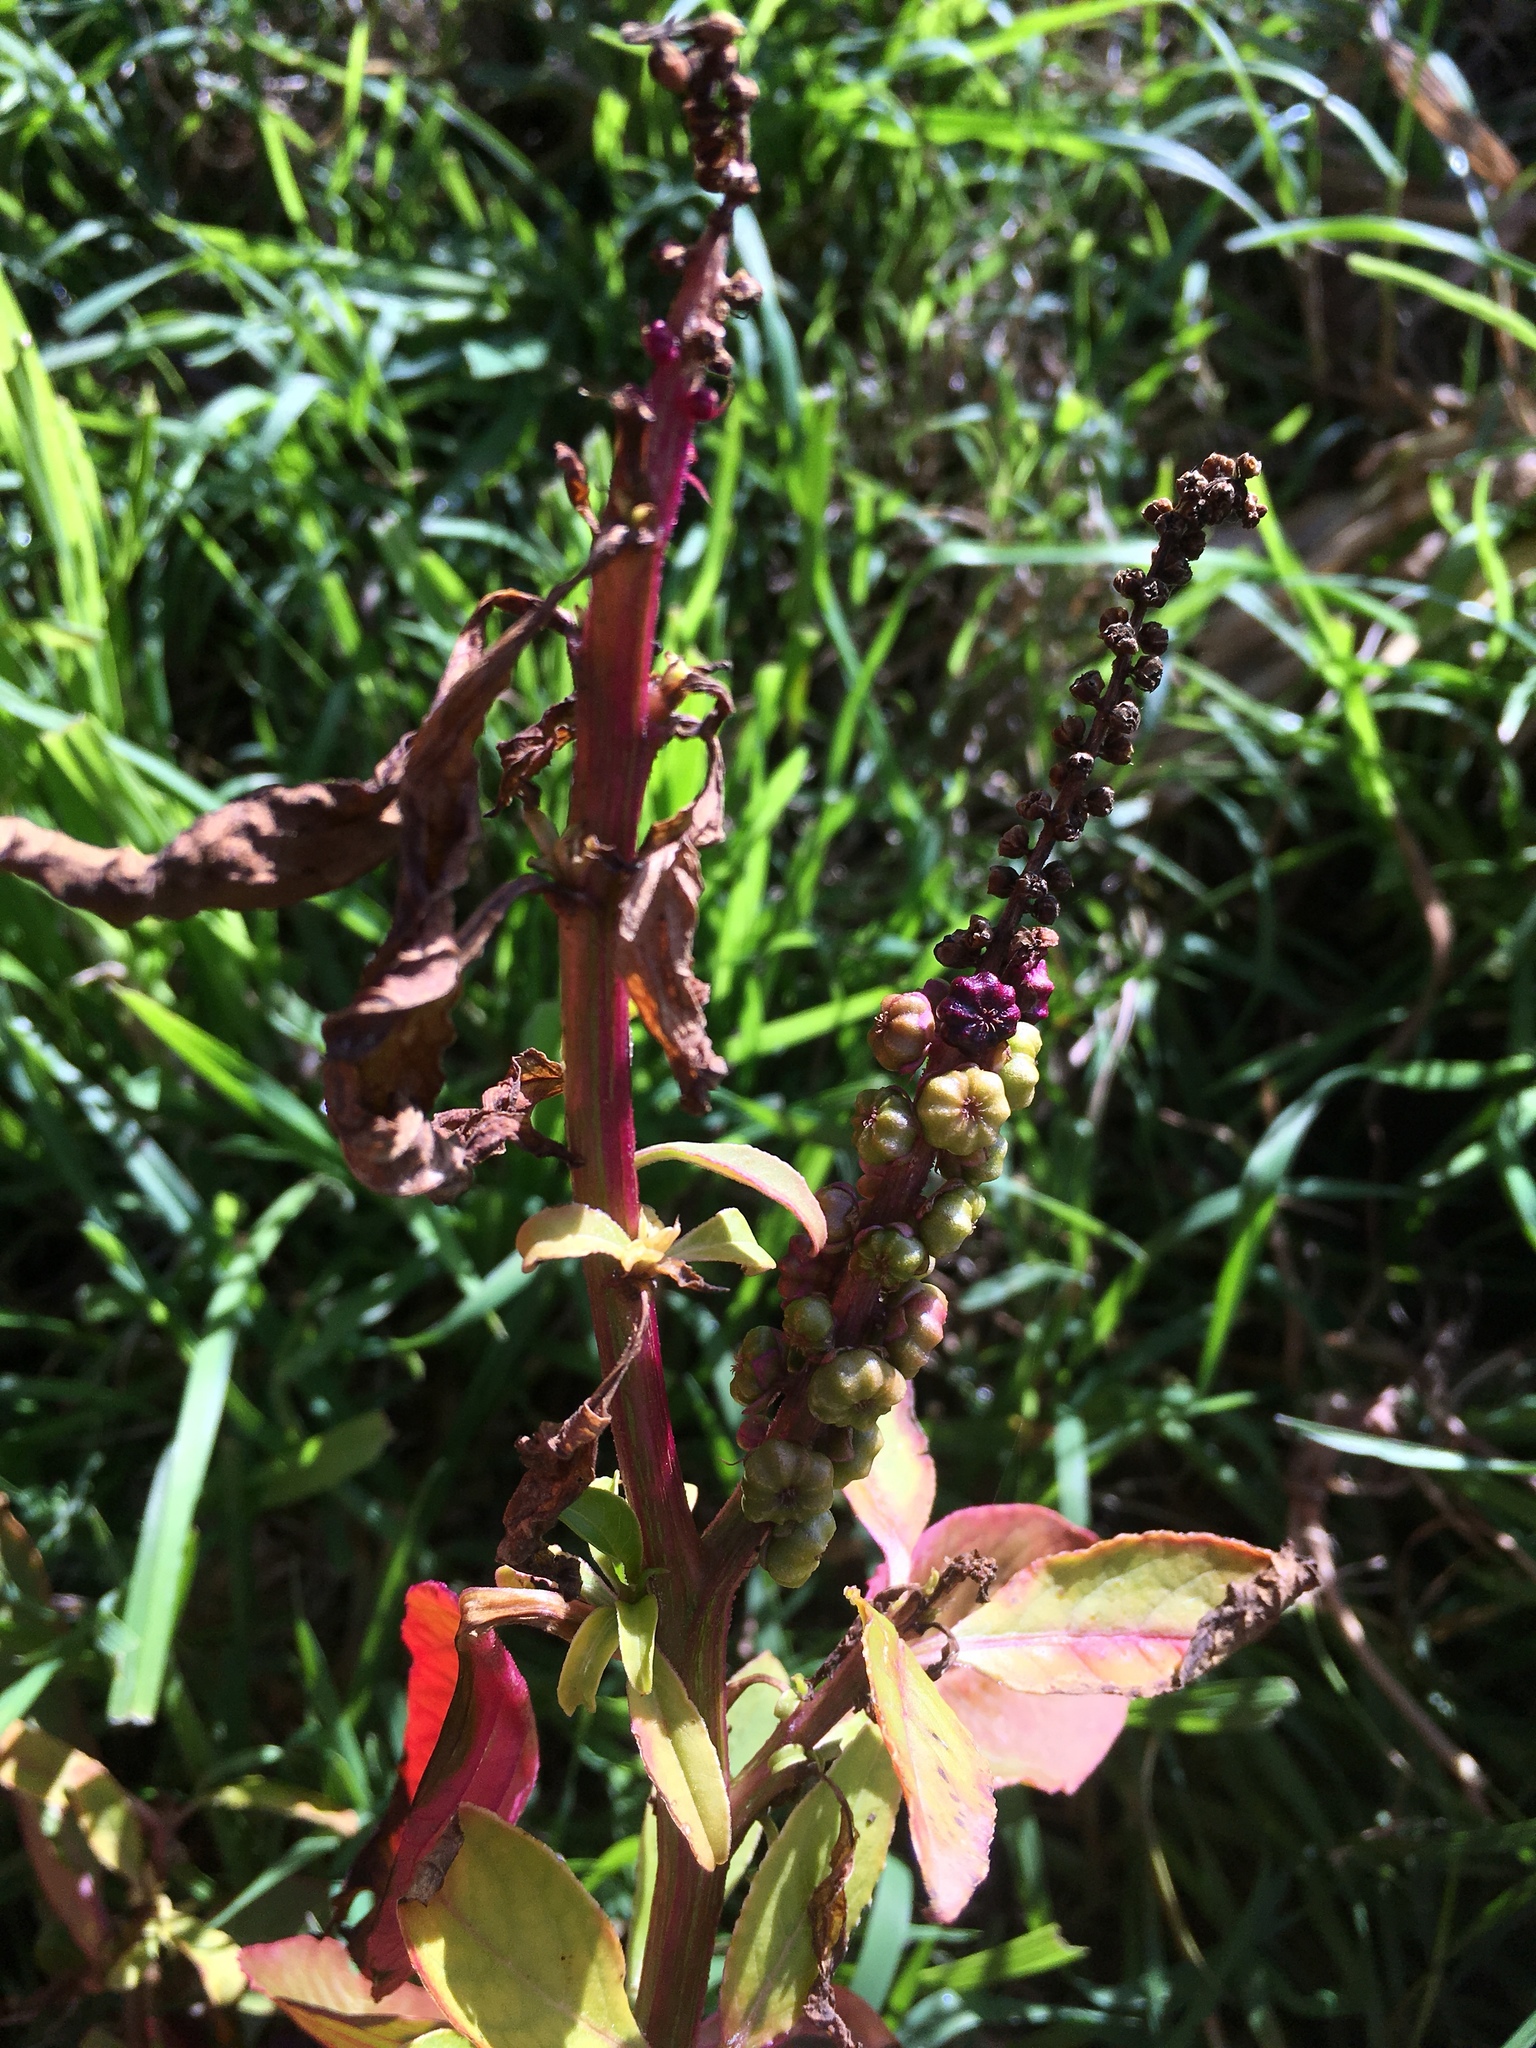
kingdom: Plantae
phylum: Tracheophyta
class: Magnoliopsida
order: Caryophyllales
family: Phytolaccaceae
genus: Phytolacca
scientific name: Phytolacca icosandra
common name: Button pokeweed
